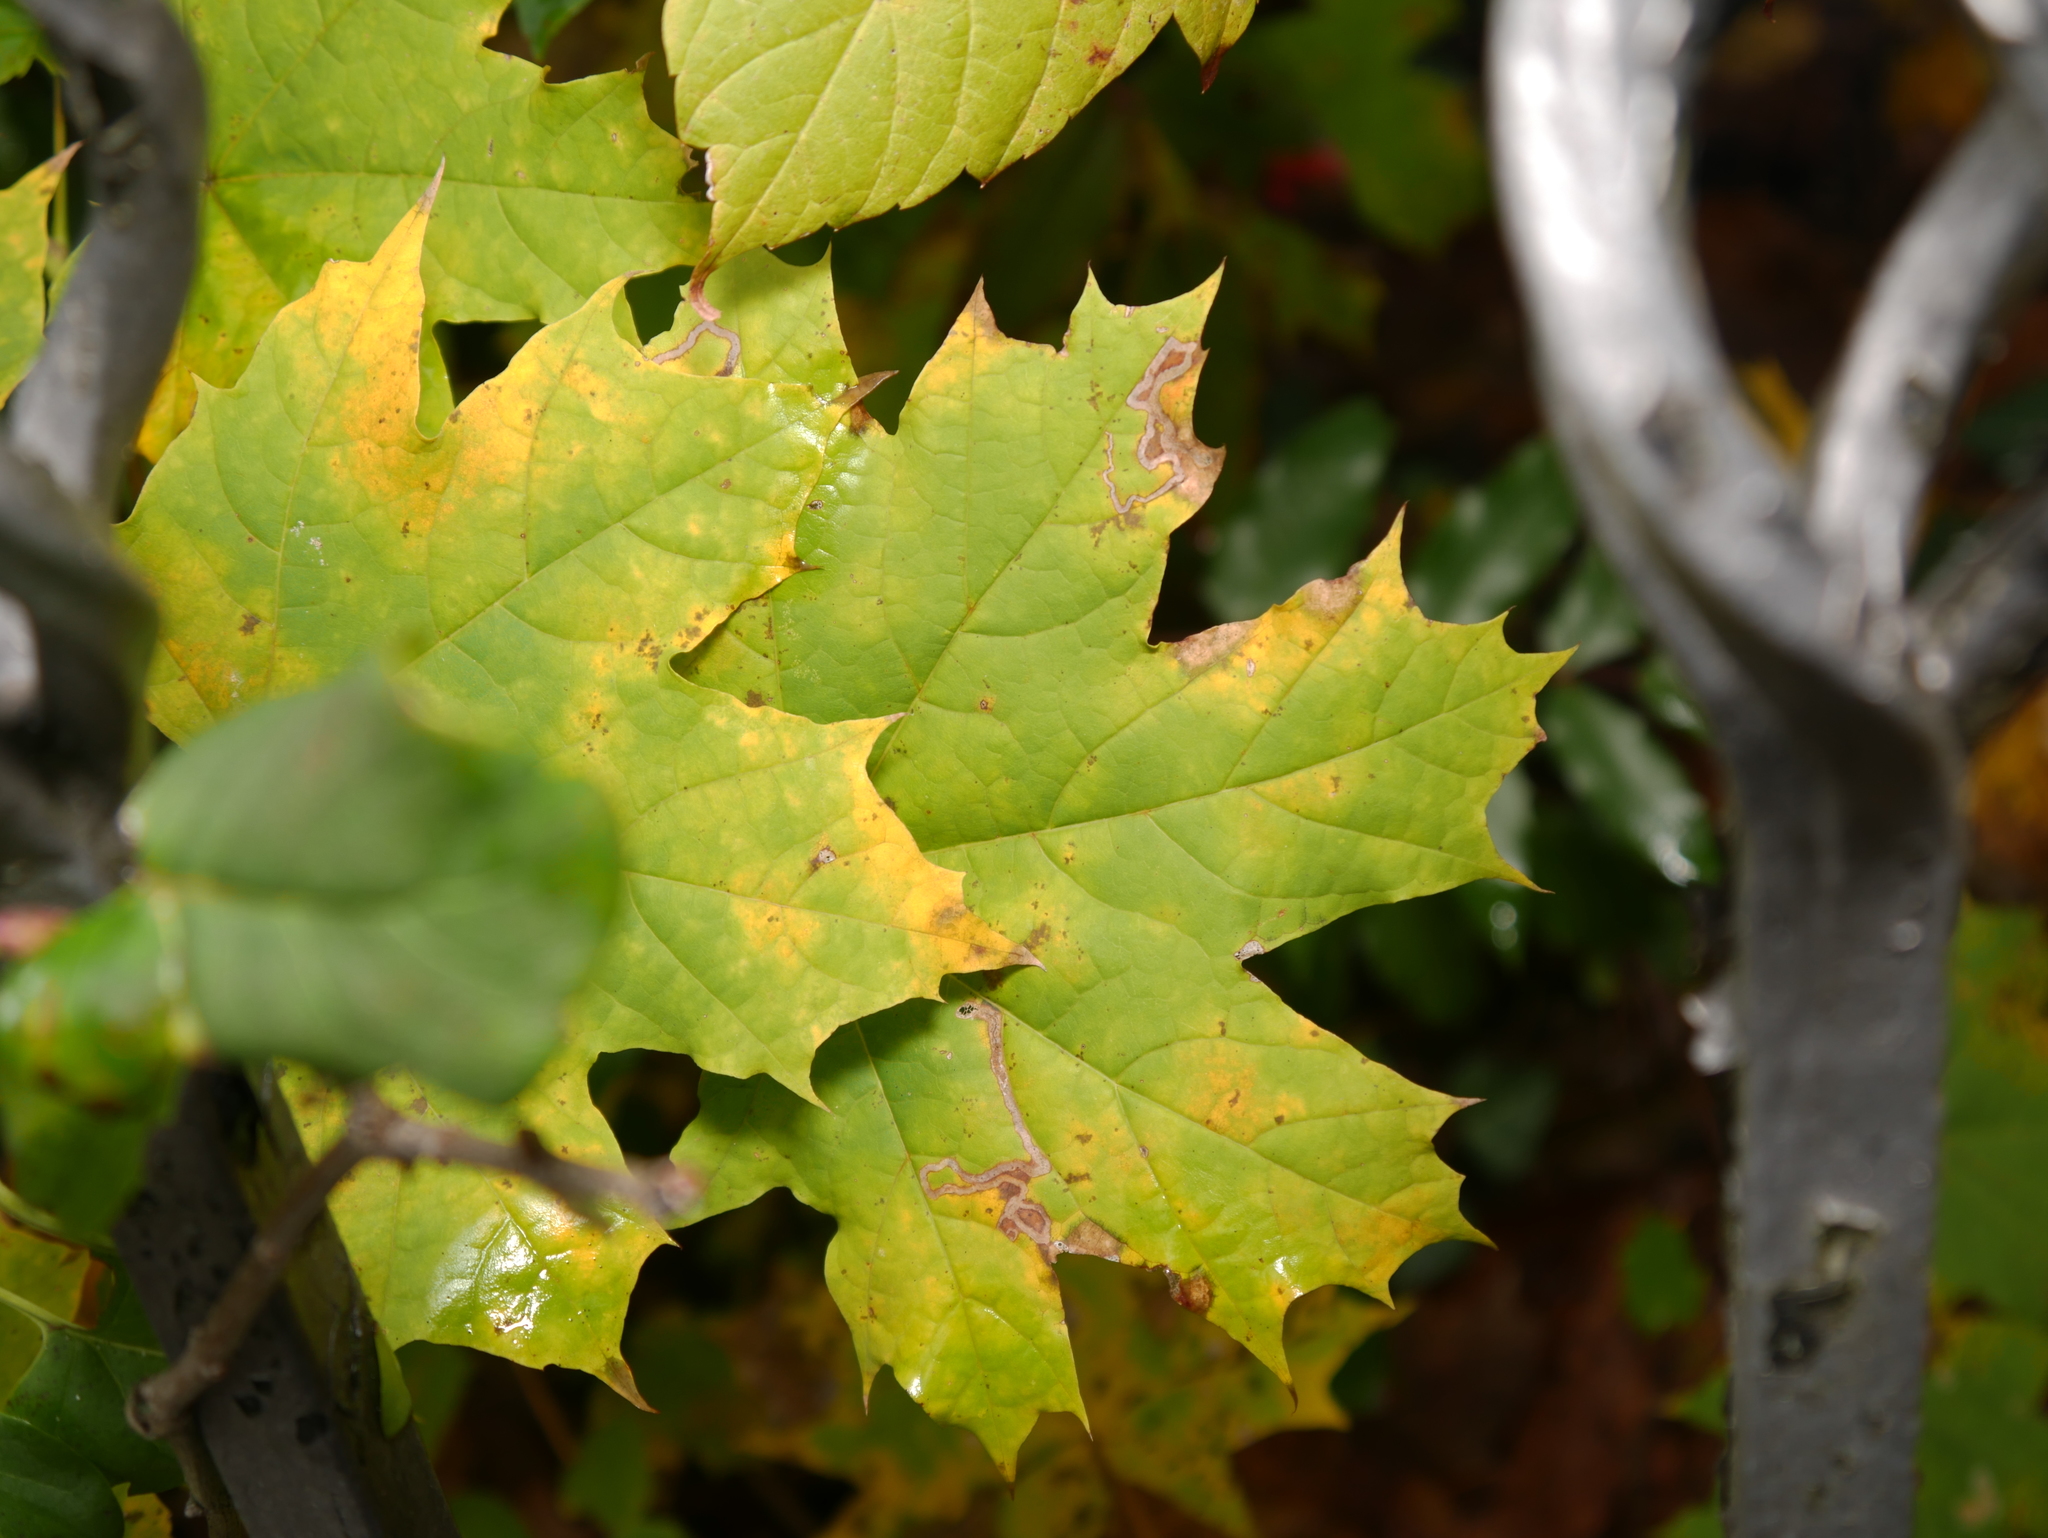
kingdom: Plantae
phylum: Tracheophyta
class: Magnoliopsida
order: Sapindales
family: Sapindaceae
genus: Acer
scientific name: Acer platanoides
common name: Norway maple
